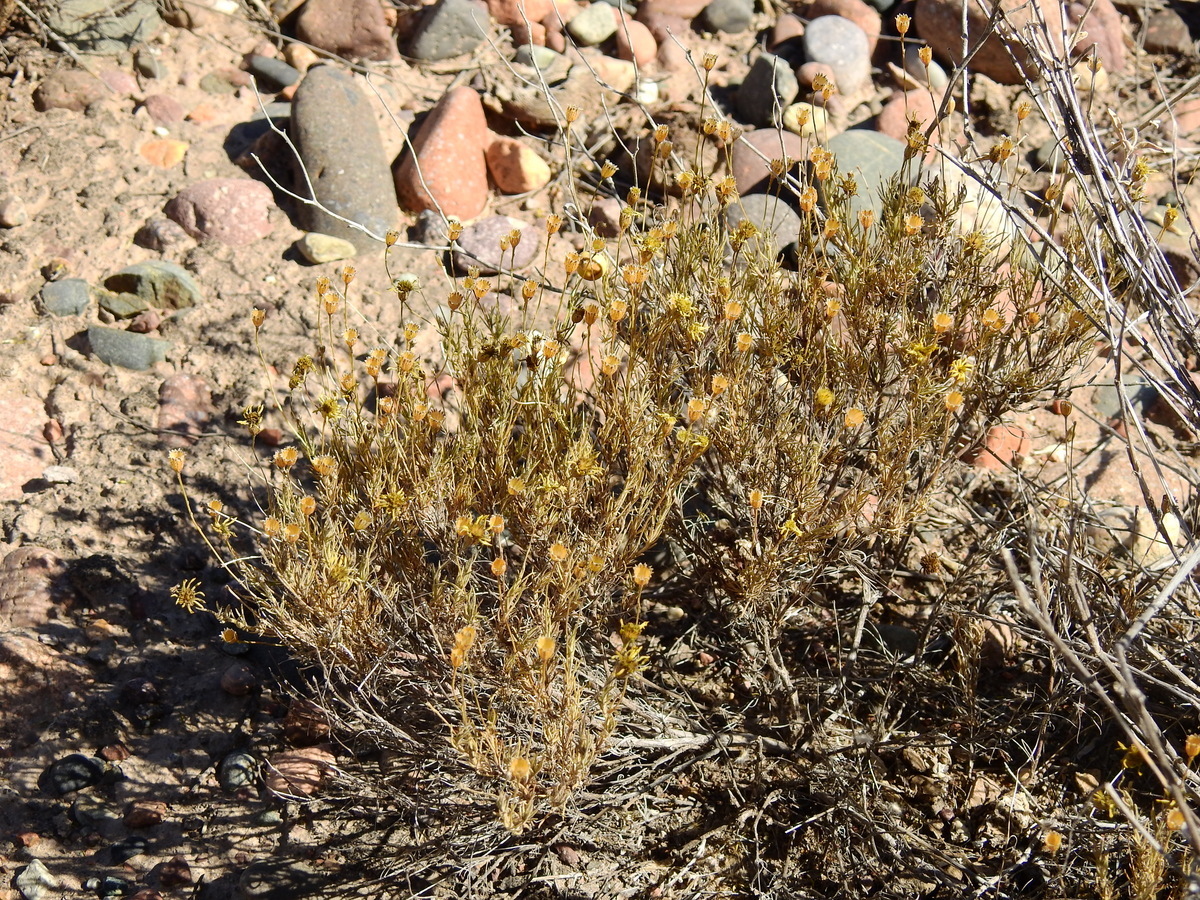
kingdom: Plantae
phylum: Tracheophyta
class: Magnoliopsida
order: Asterales
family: Asteraceae
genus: Thymophylla
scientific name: Thymophylla pentachaeta
